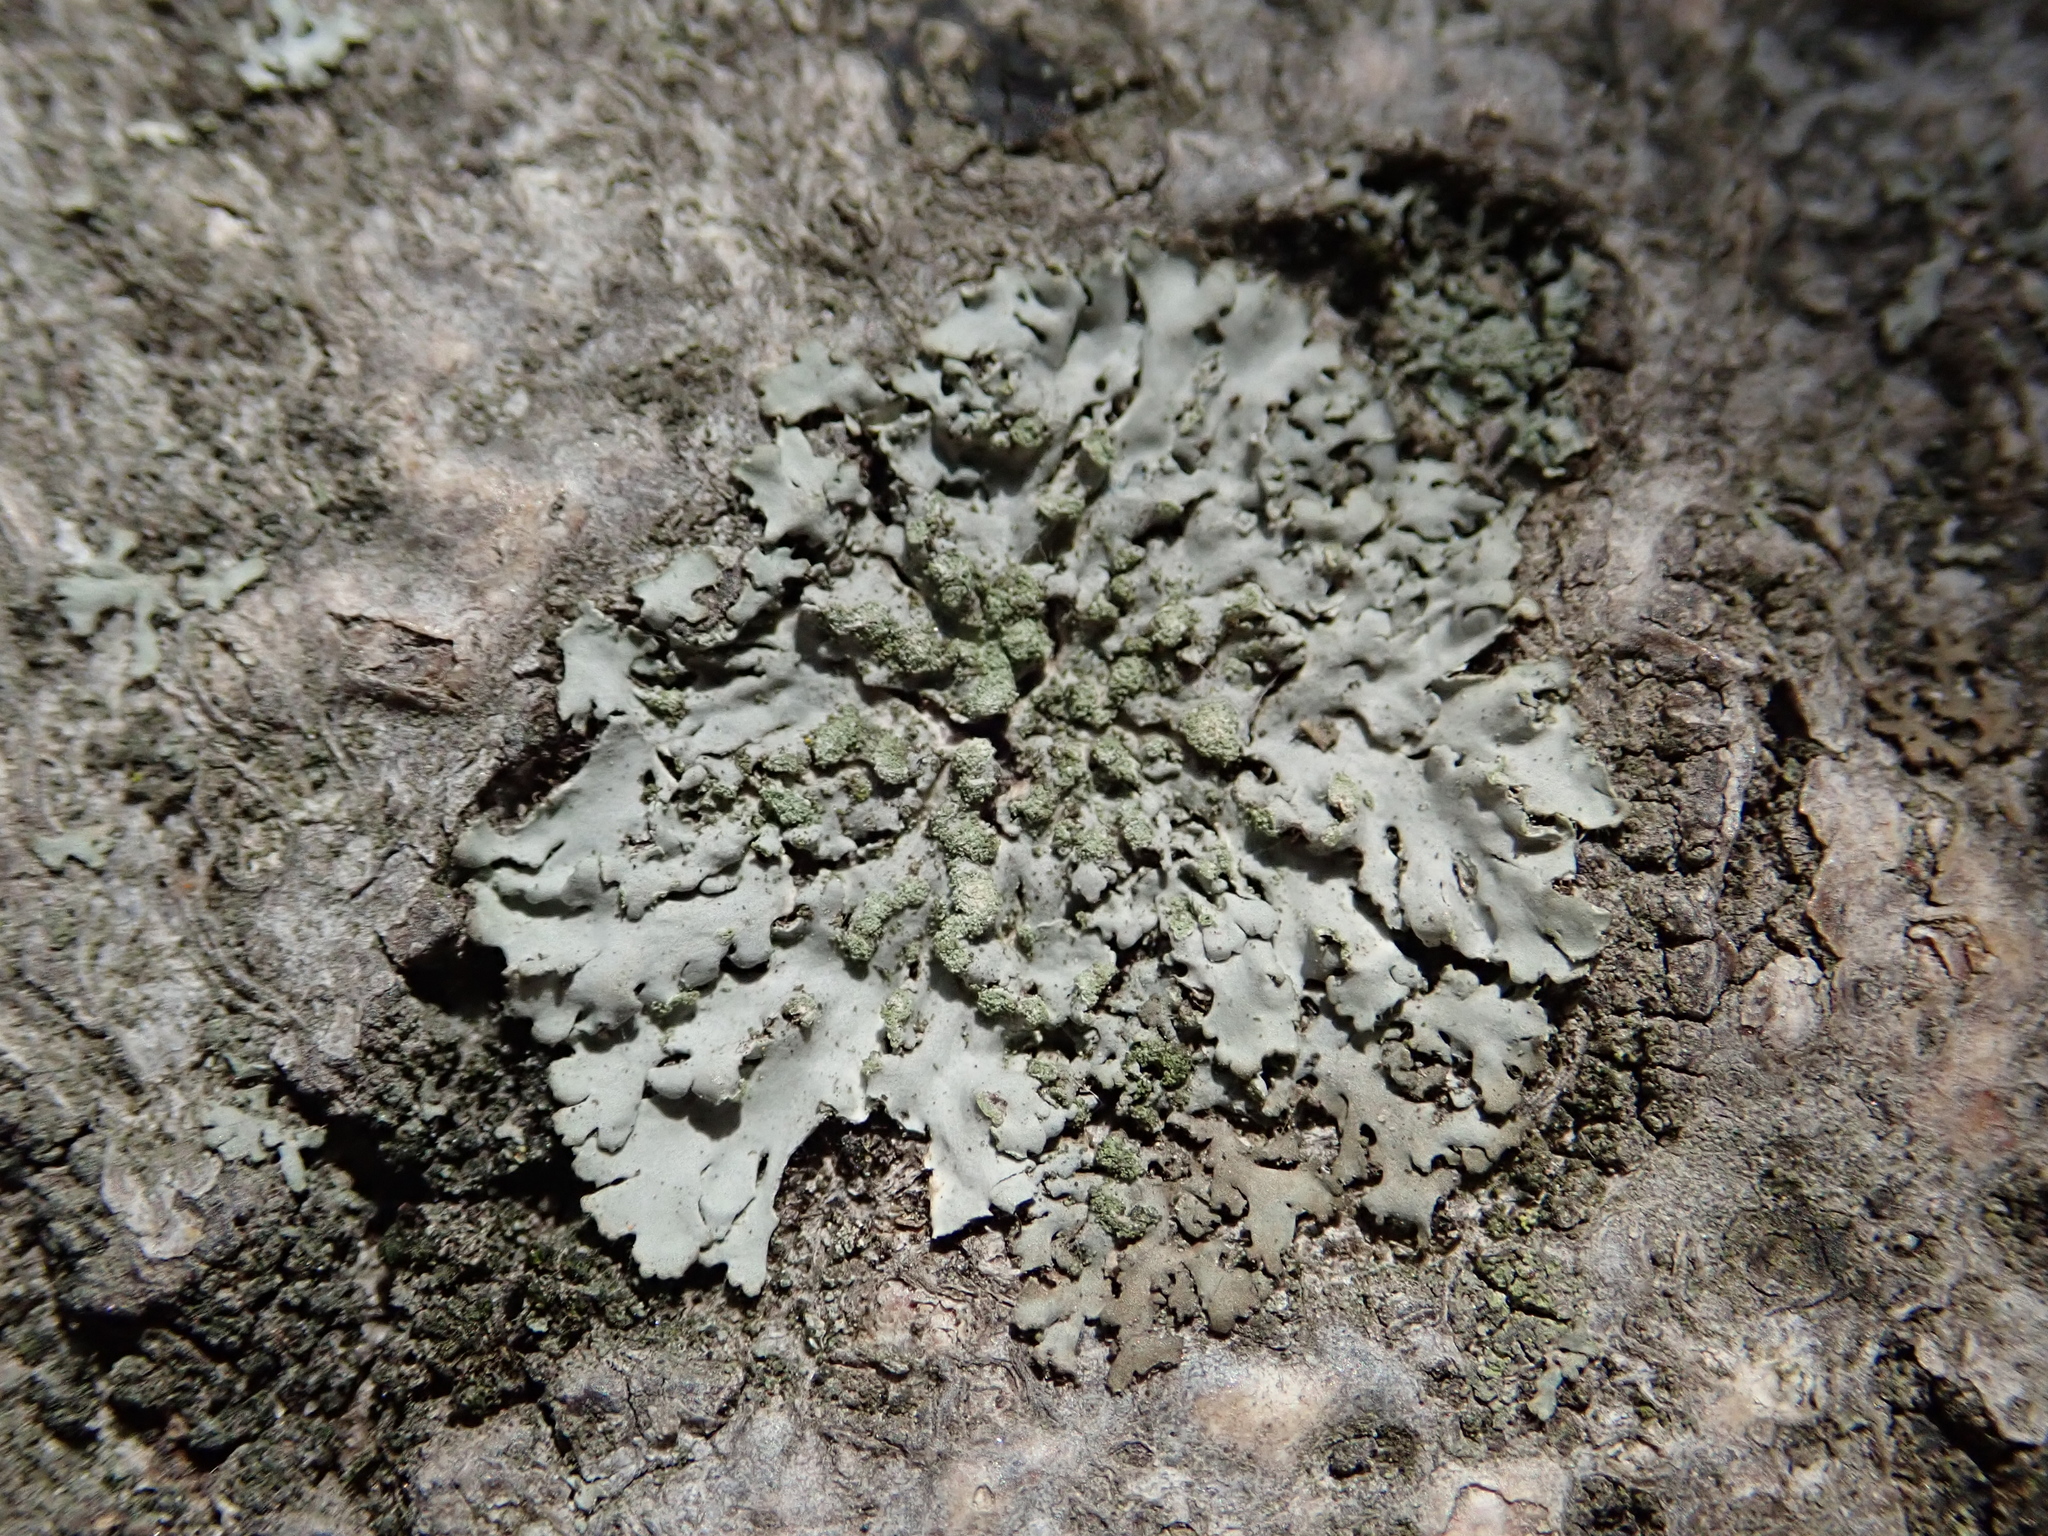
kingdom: Fungi
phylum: Ascomycota
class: Lecanoromycetes
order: Caliciales
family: Physciaceae
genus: Phaeophyscia
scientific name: Phaeophyscia orbicularis
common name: Mealy shadow lichen
